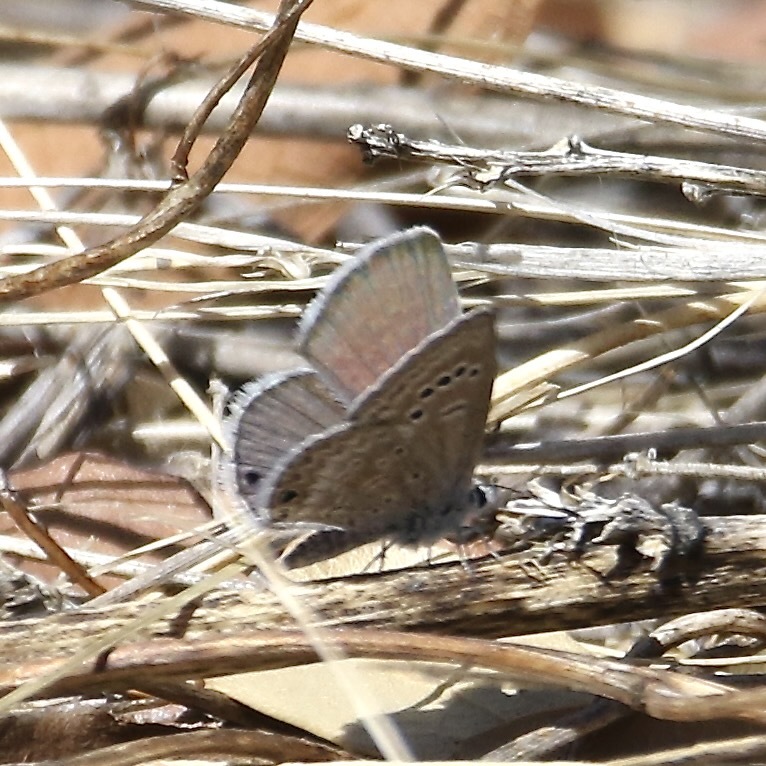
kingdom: Animalia
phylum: Arthropoda
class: Insecta
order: Lepidoptera
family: Lycaenidae
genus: Echinargus
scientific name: Echinargus isola
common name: Reakirt's blue
